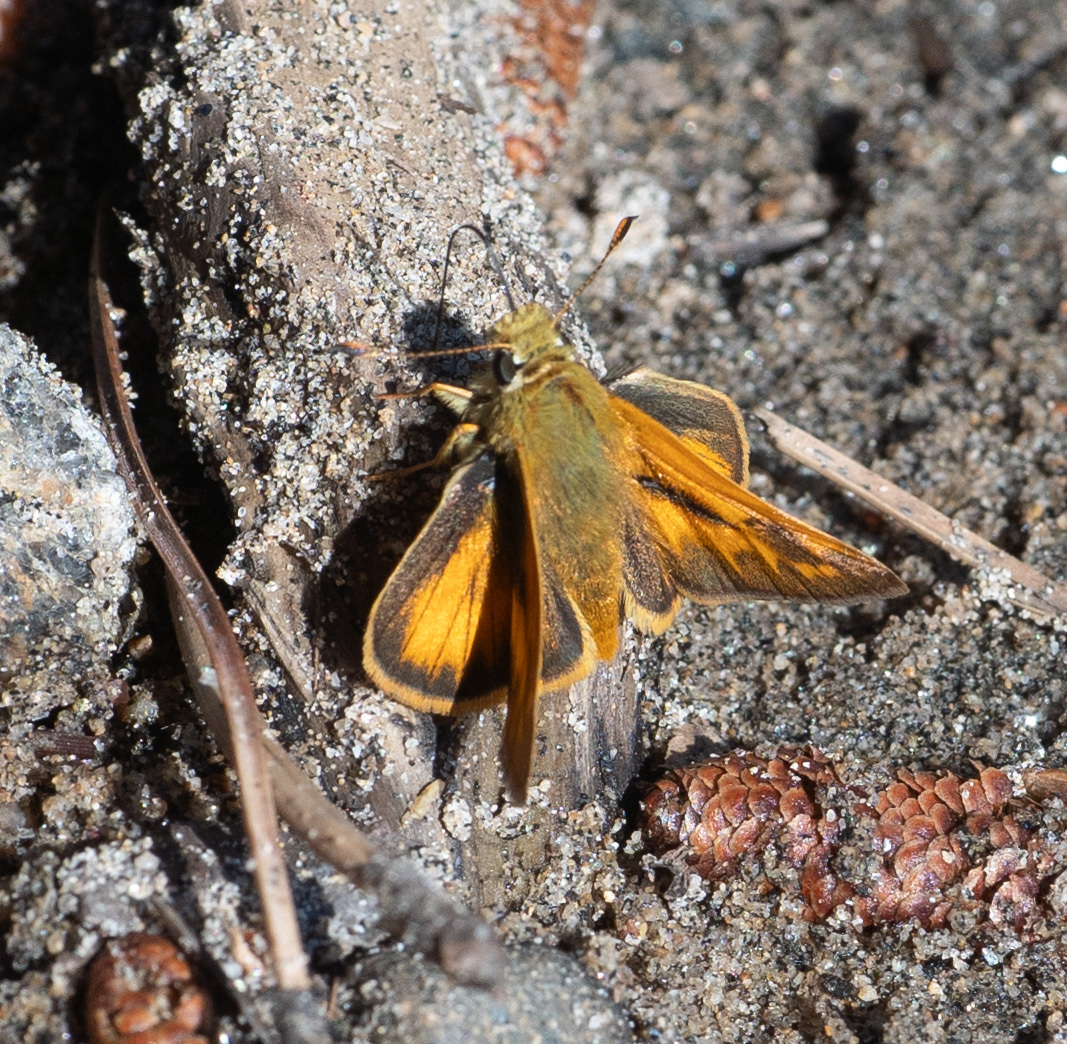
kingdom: Animalia
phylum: Arthropoda
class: Insecta
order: Lepidoptera
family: Hesperiidae
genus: Ochlodes
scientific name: Ochlodes sylvanoides
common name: Woodland skipper
